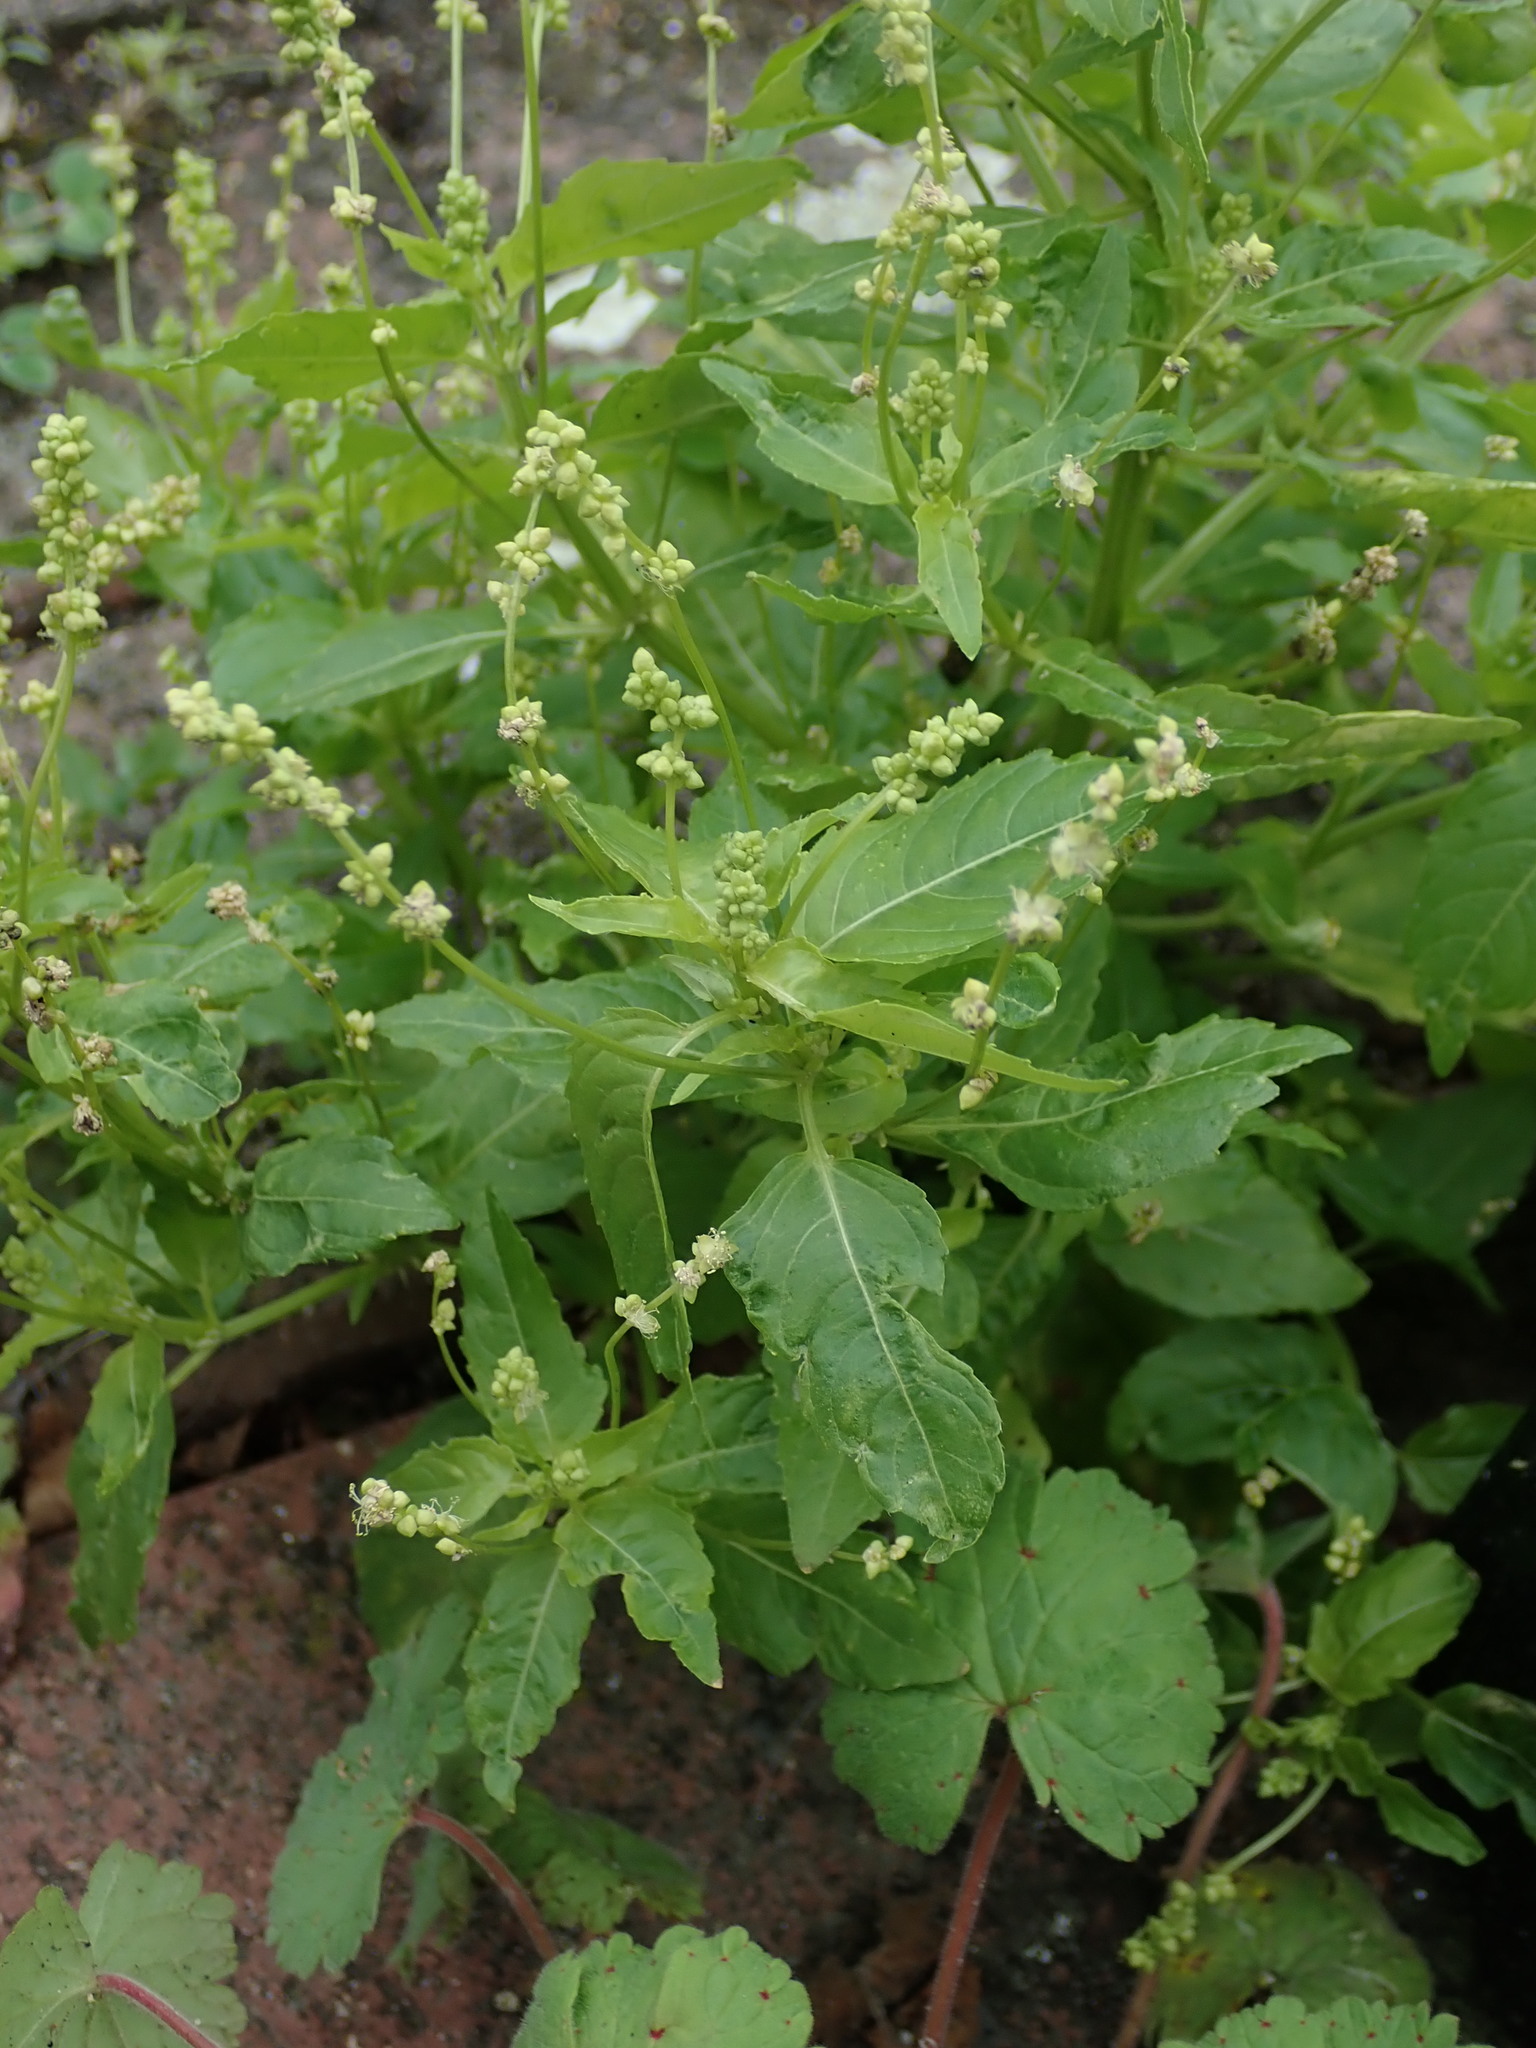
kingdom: Plantae
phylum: Tracheophyta
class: Magnoliopsida
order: Malpighiales
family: Euphorbiaceae
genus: Mercurialis
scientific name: Mercurialis annua
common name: Annual mercury
